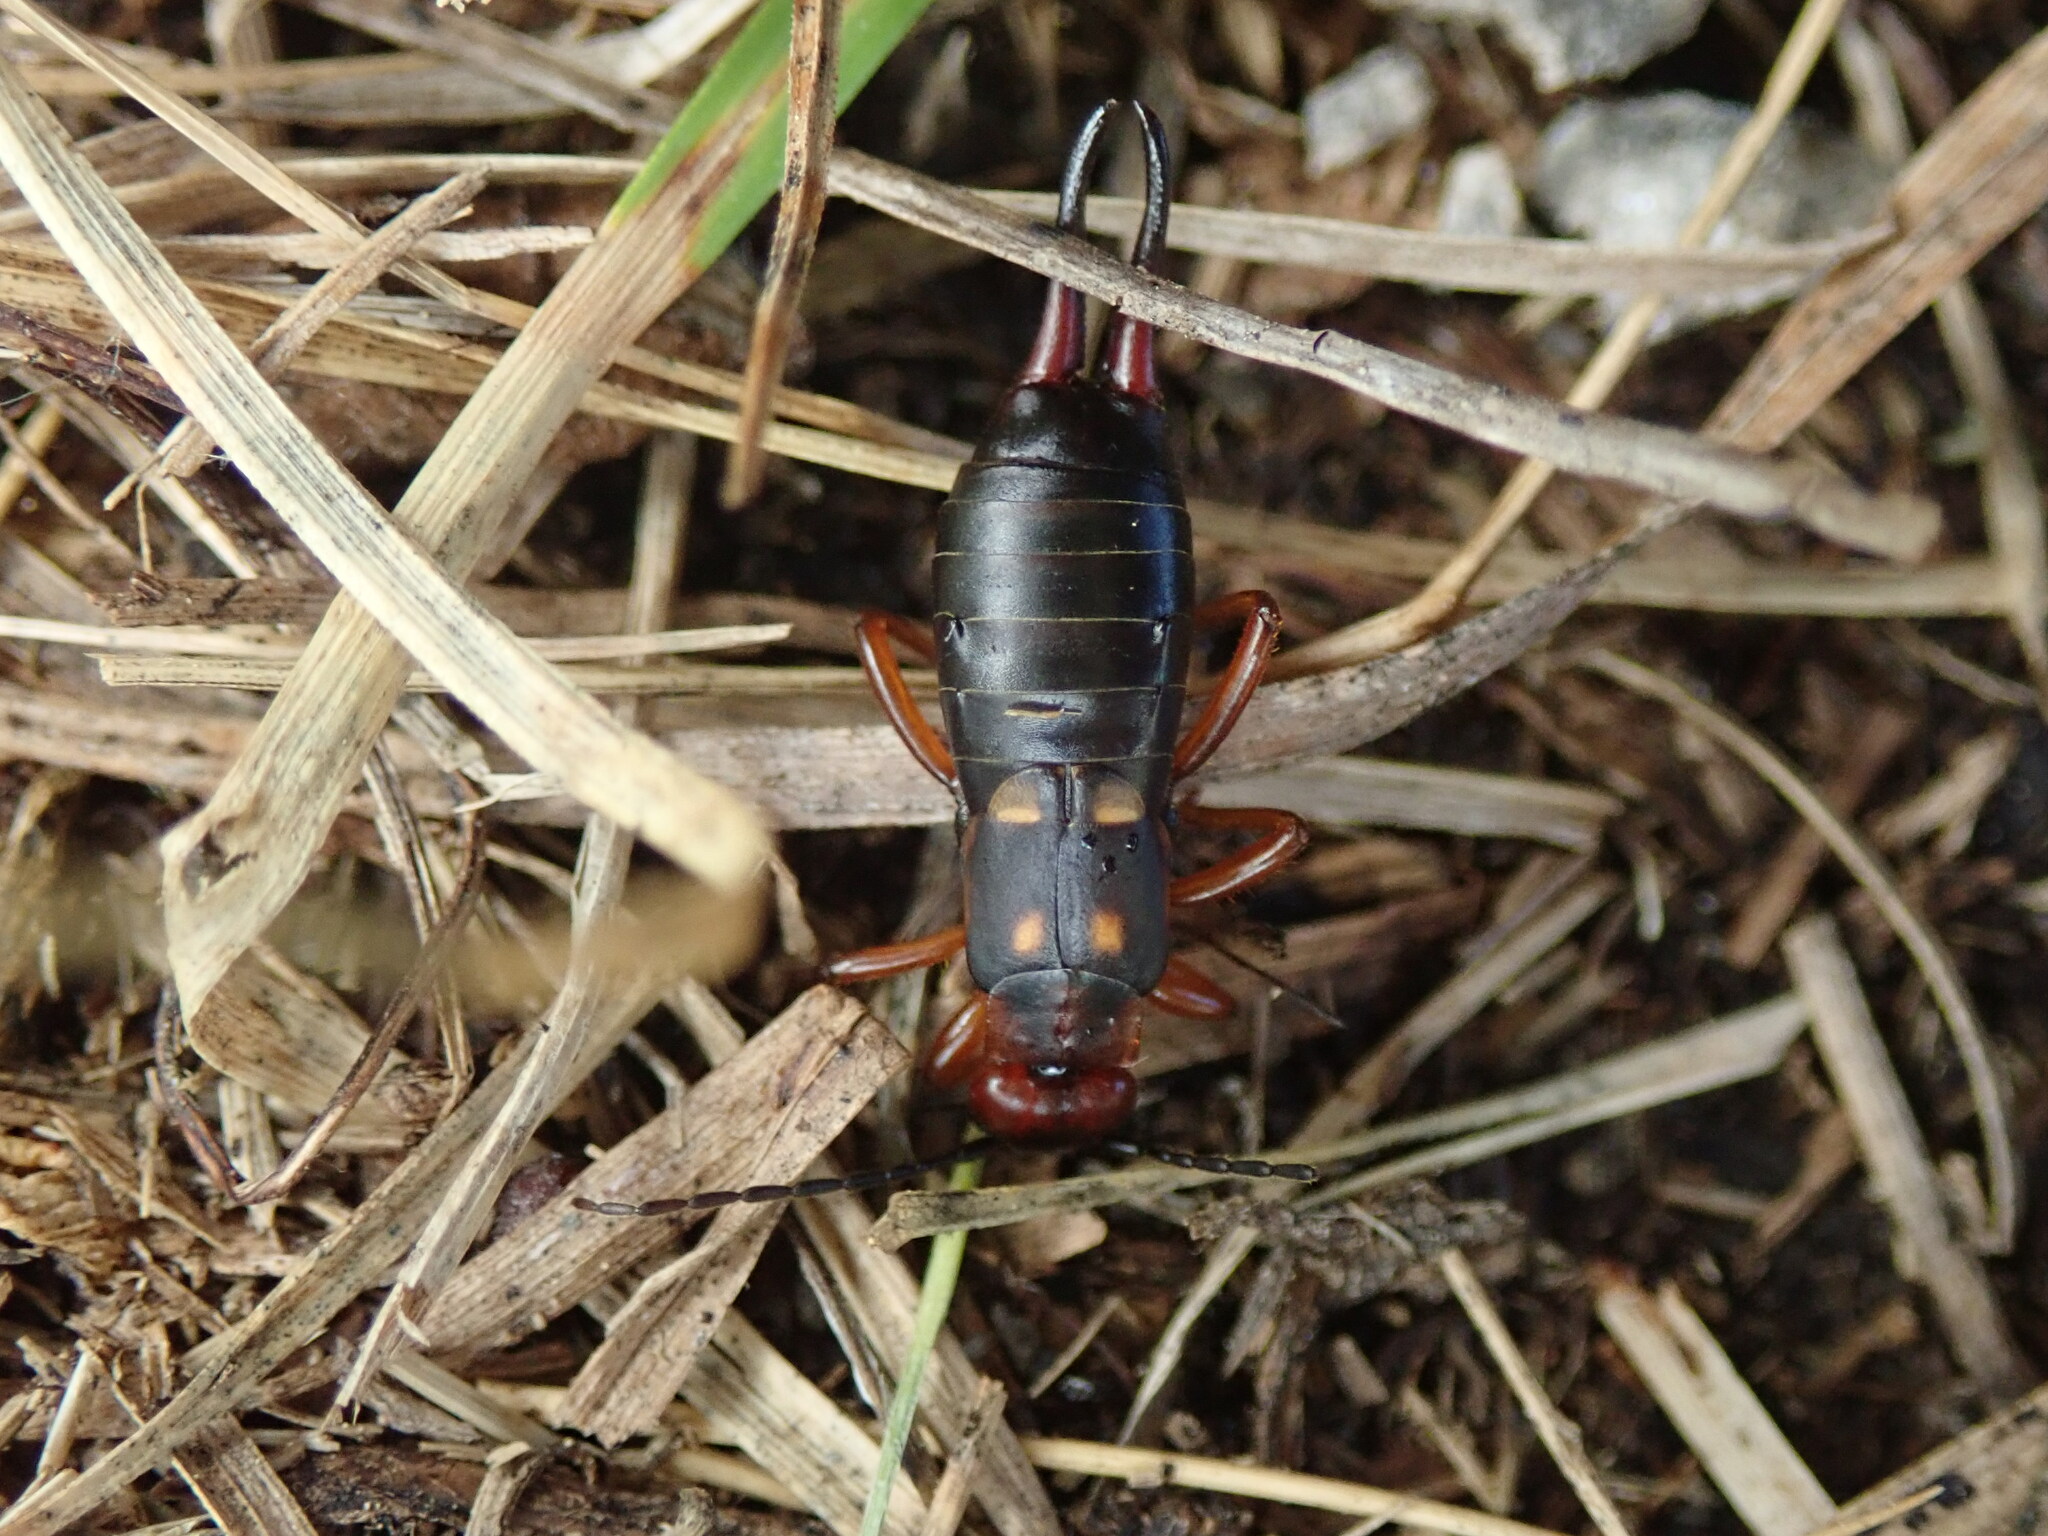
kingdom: Animalia
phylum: Arthropoda
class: Insecta
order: Dermaptera
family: Forficulidae
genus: Anechura
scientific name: Anechura bipunctata
